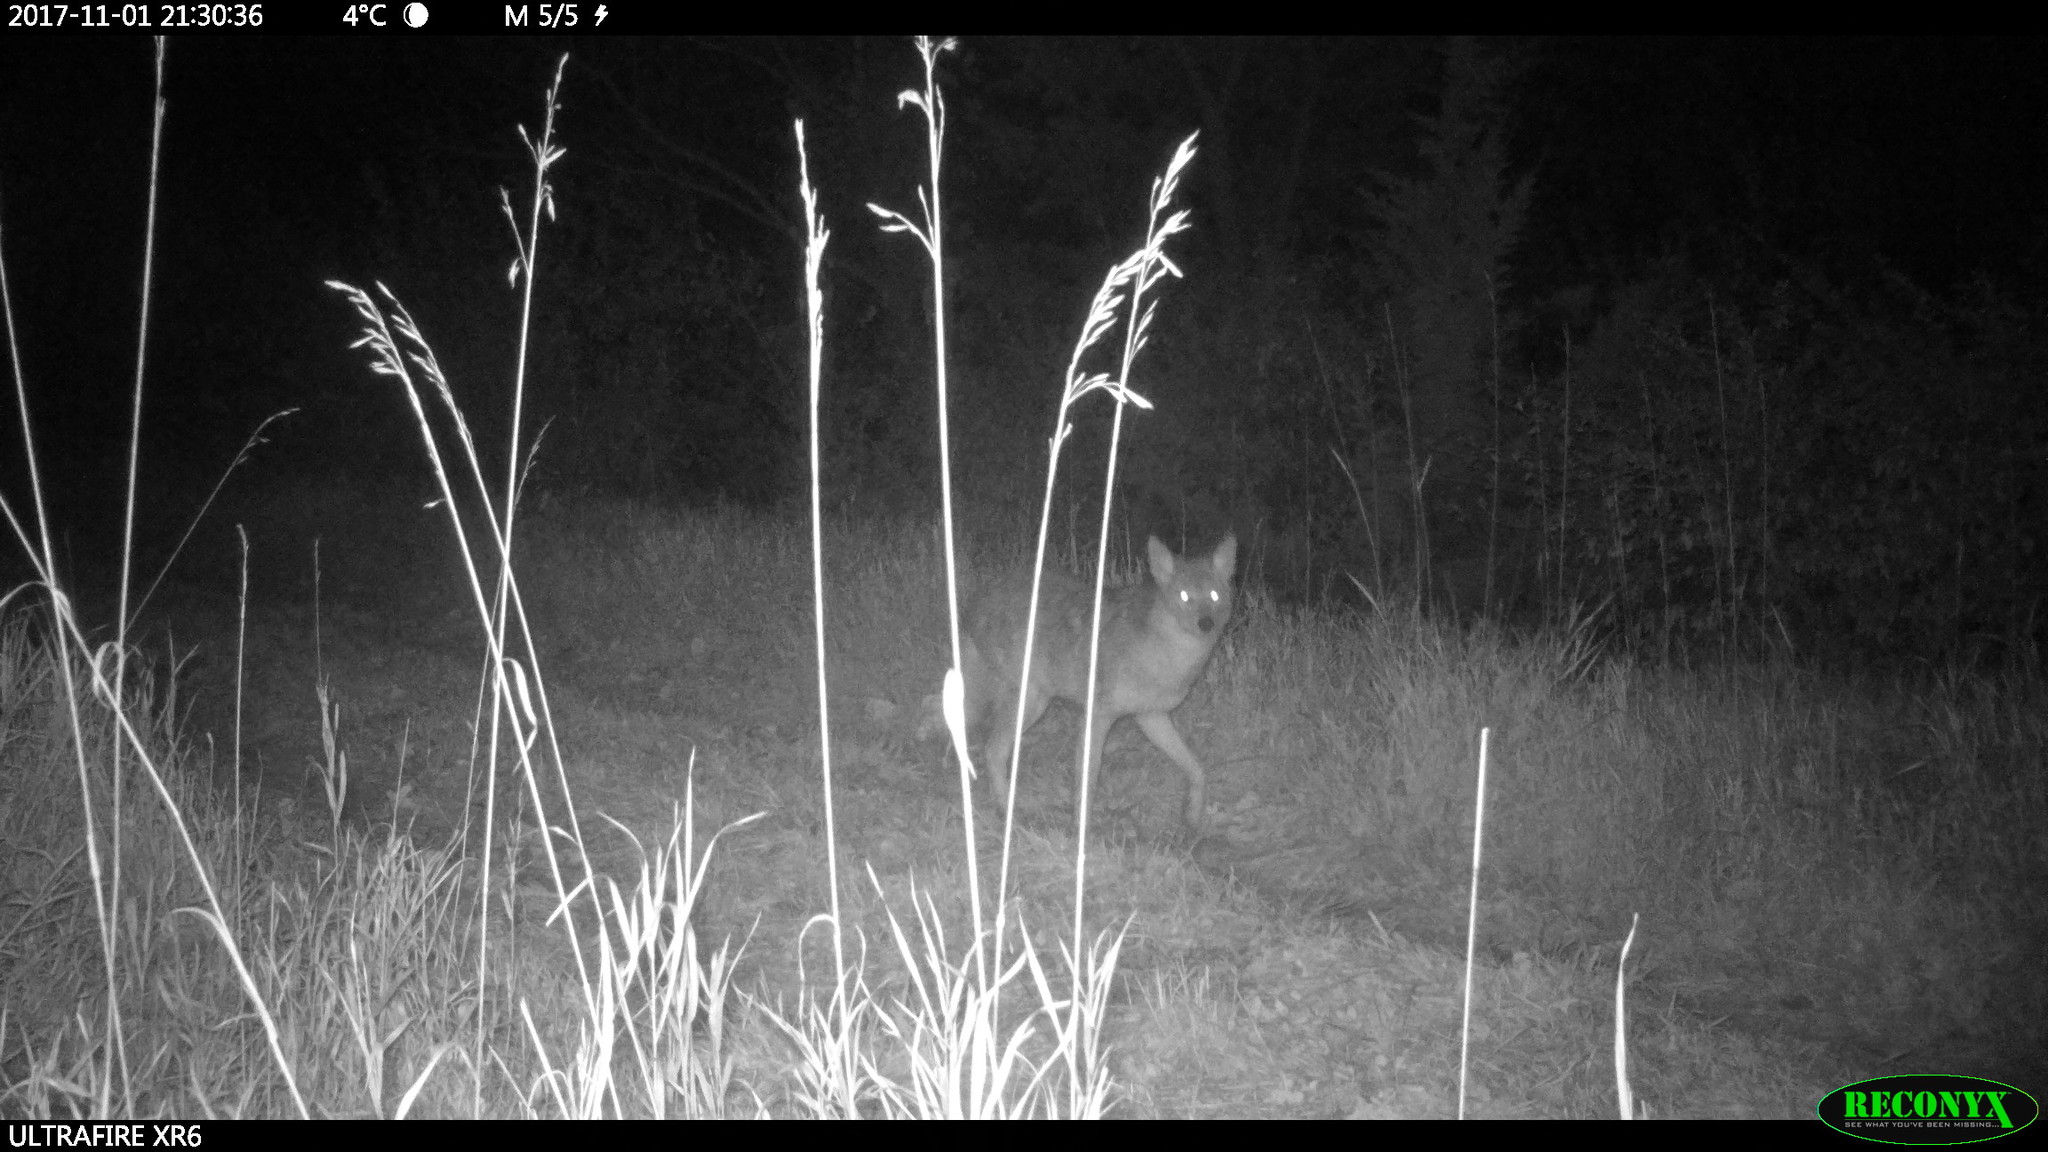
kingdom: Animalia
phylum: Chordata
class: Mammalia
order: Carnivora
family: Canidae
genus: Canis
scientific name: Canis latrans
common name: Coyote
